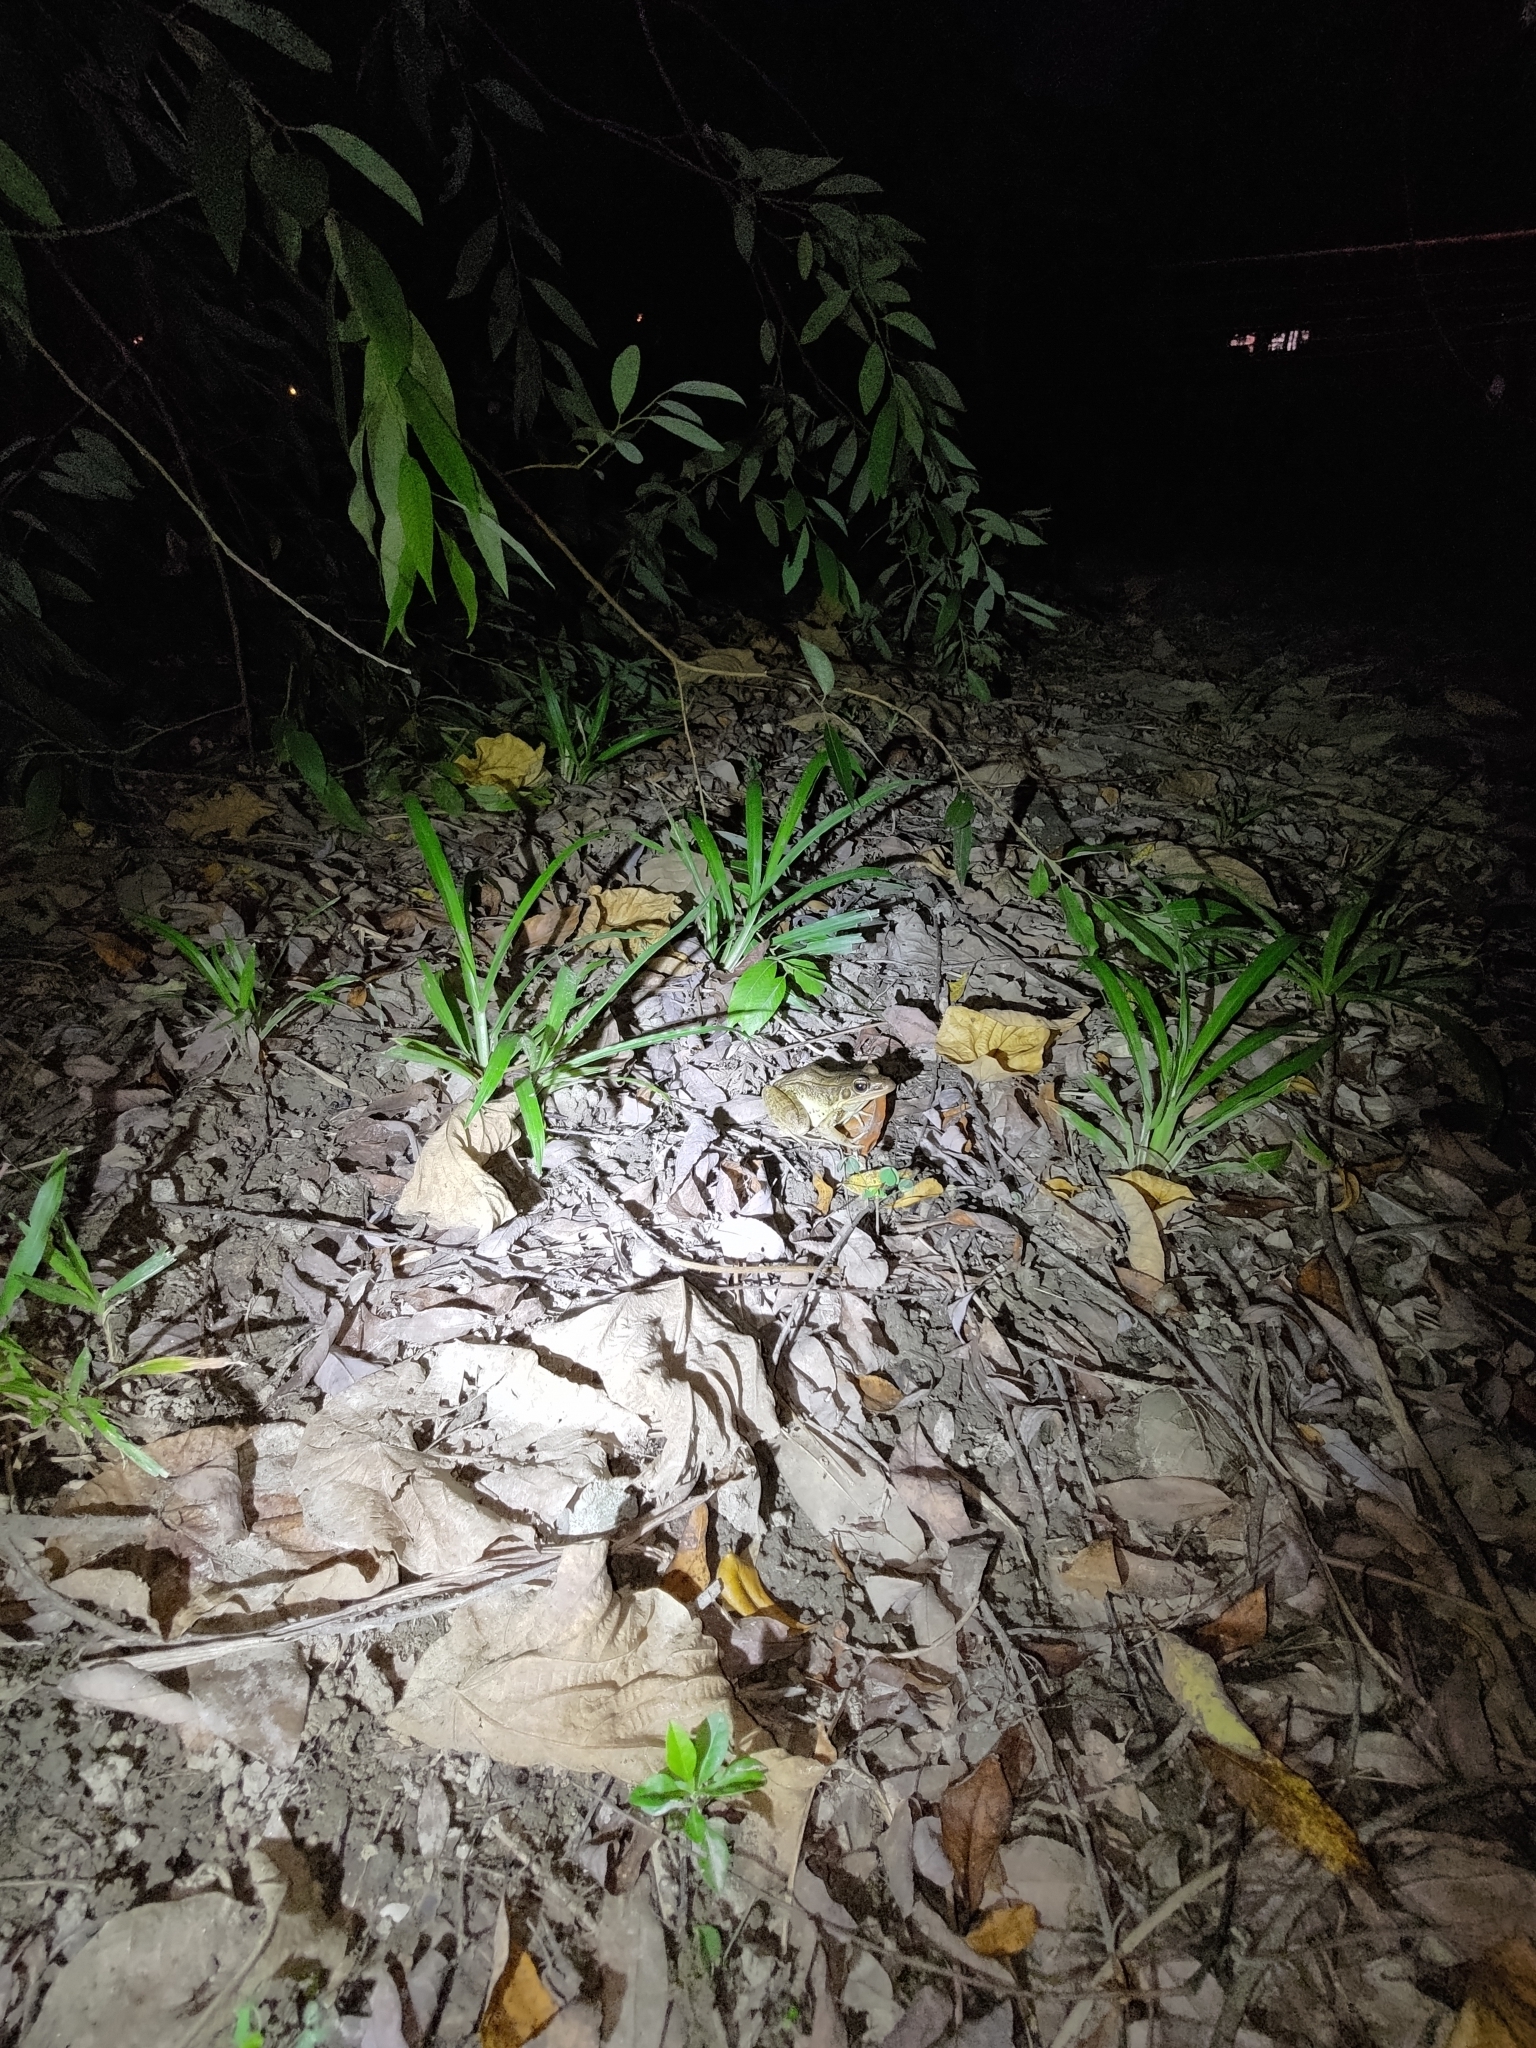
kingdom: Animalia
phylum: Chordata
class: Amphibia
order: Anura
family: Ranidae
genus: Sylvirana
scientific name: Sylvirana guentheri
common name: Guenther's amoy frog
